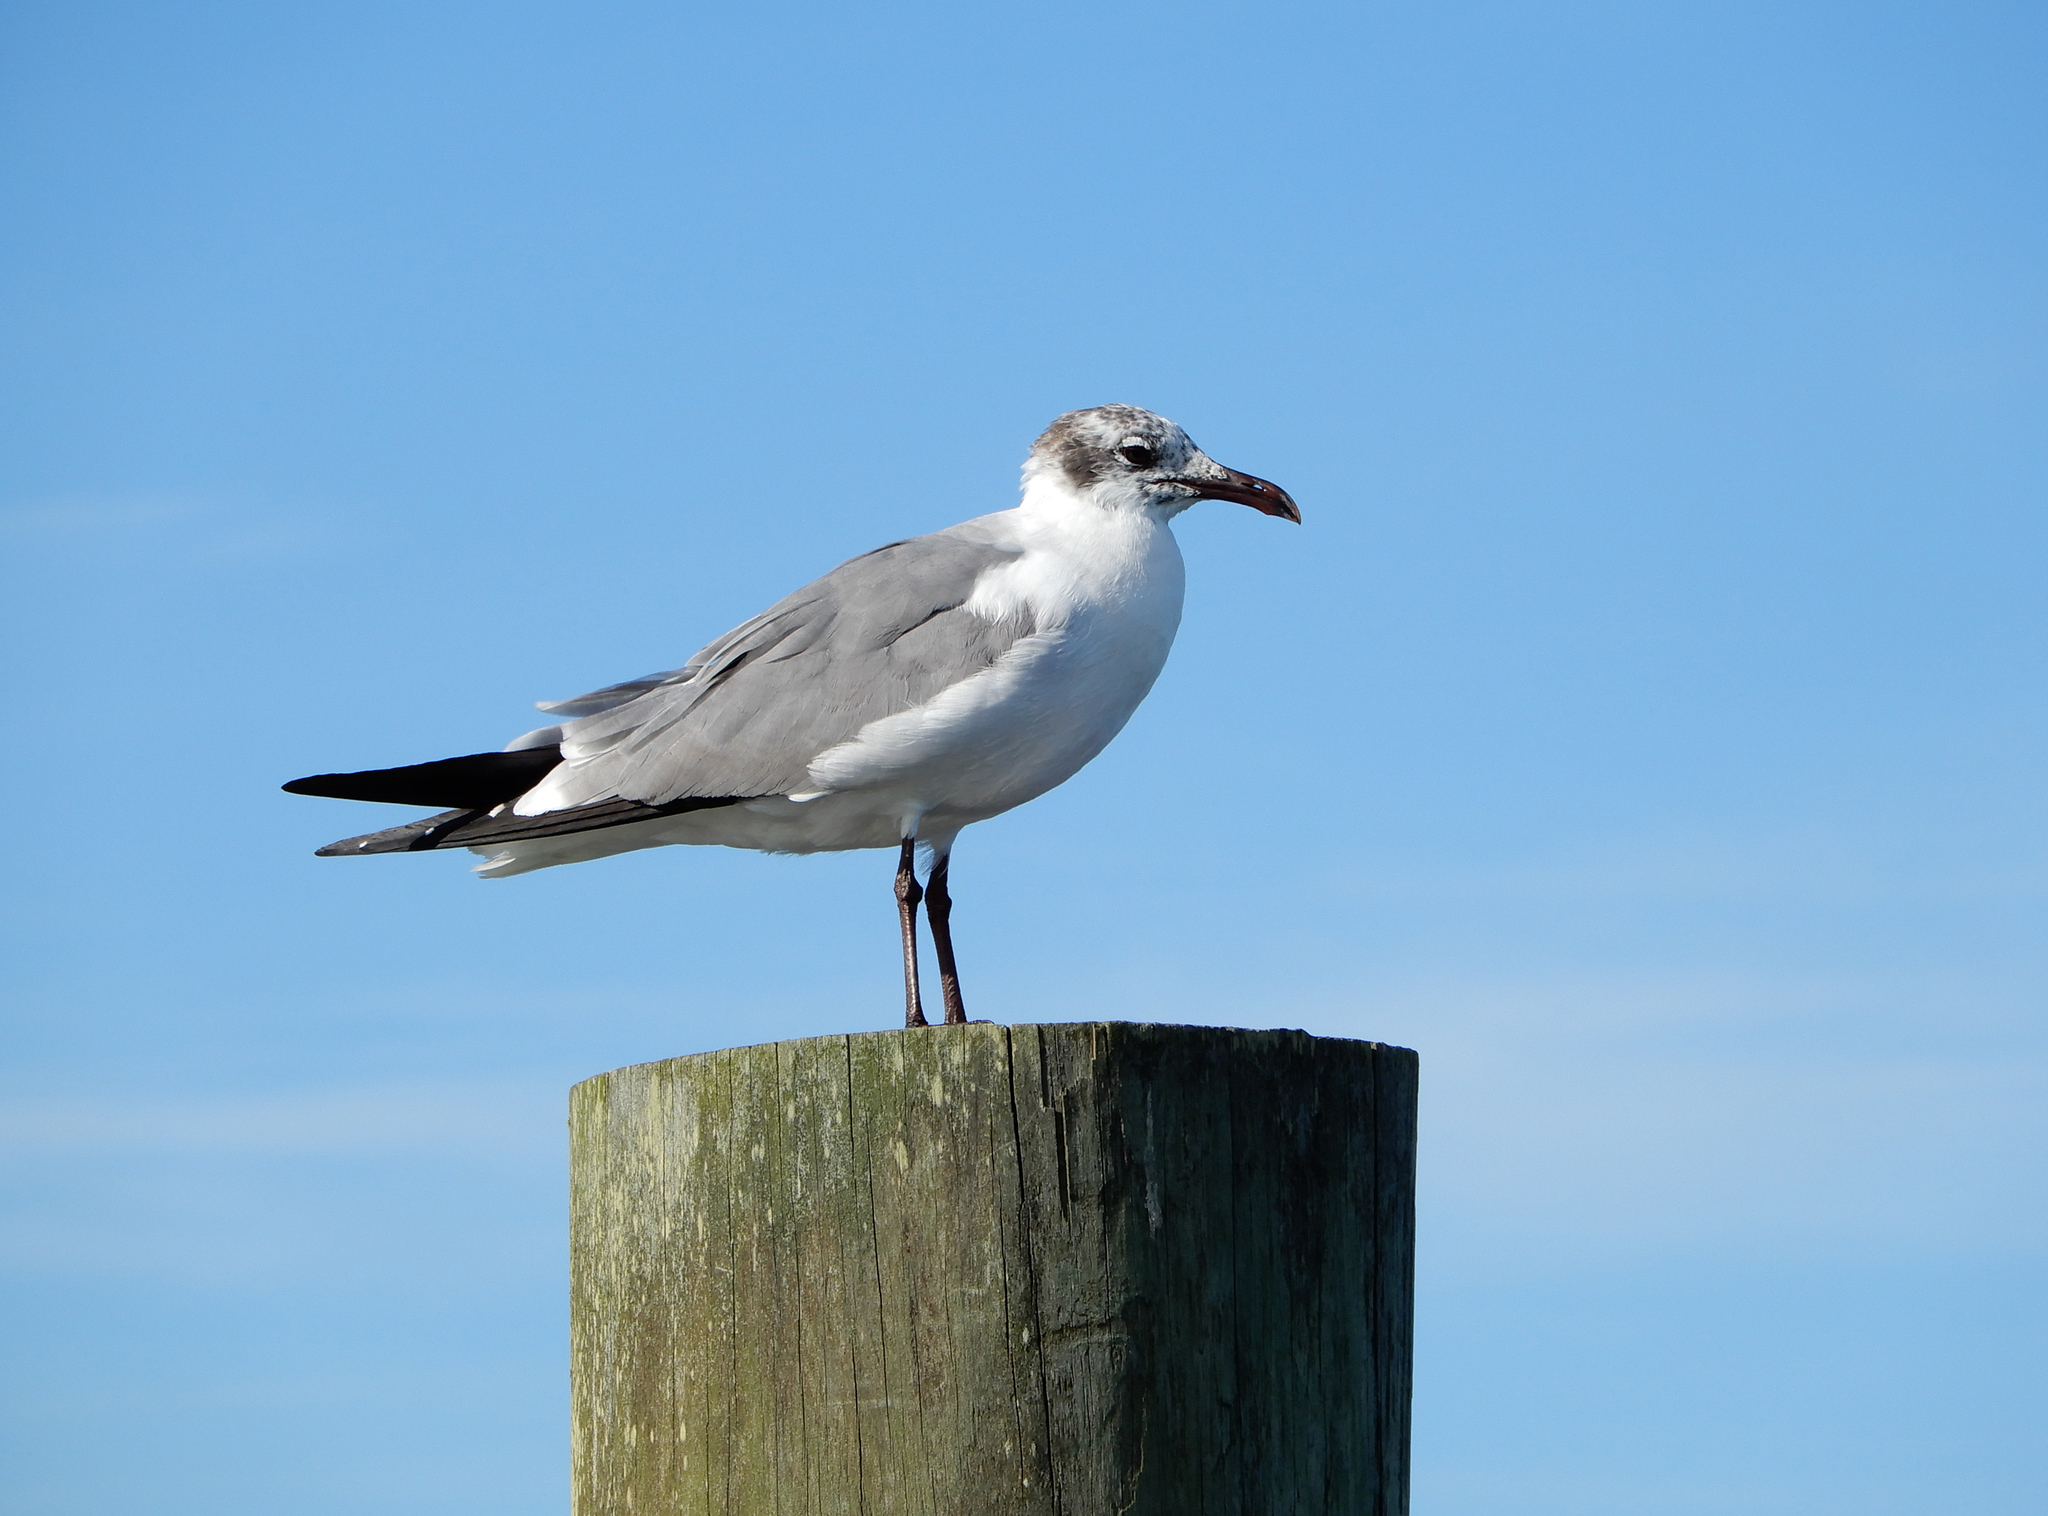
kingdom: Animalia
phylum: Chordata
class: Aves
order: Charadriiformes
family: Laridae
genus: Leucophaeus
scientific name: Leucophaeus atricilla
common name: Laughing gull
